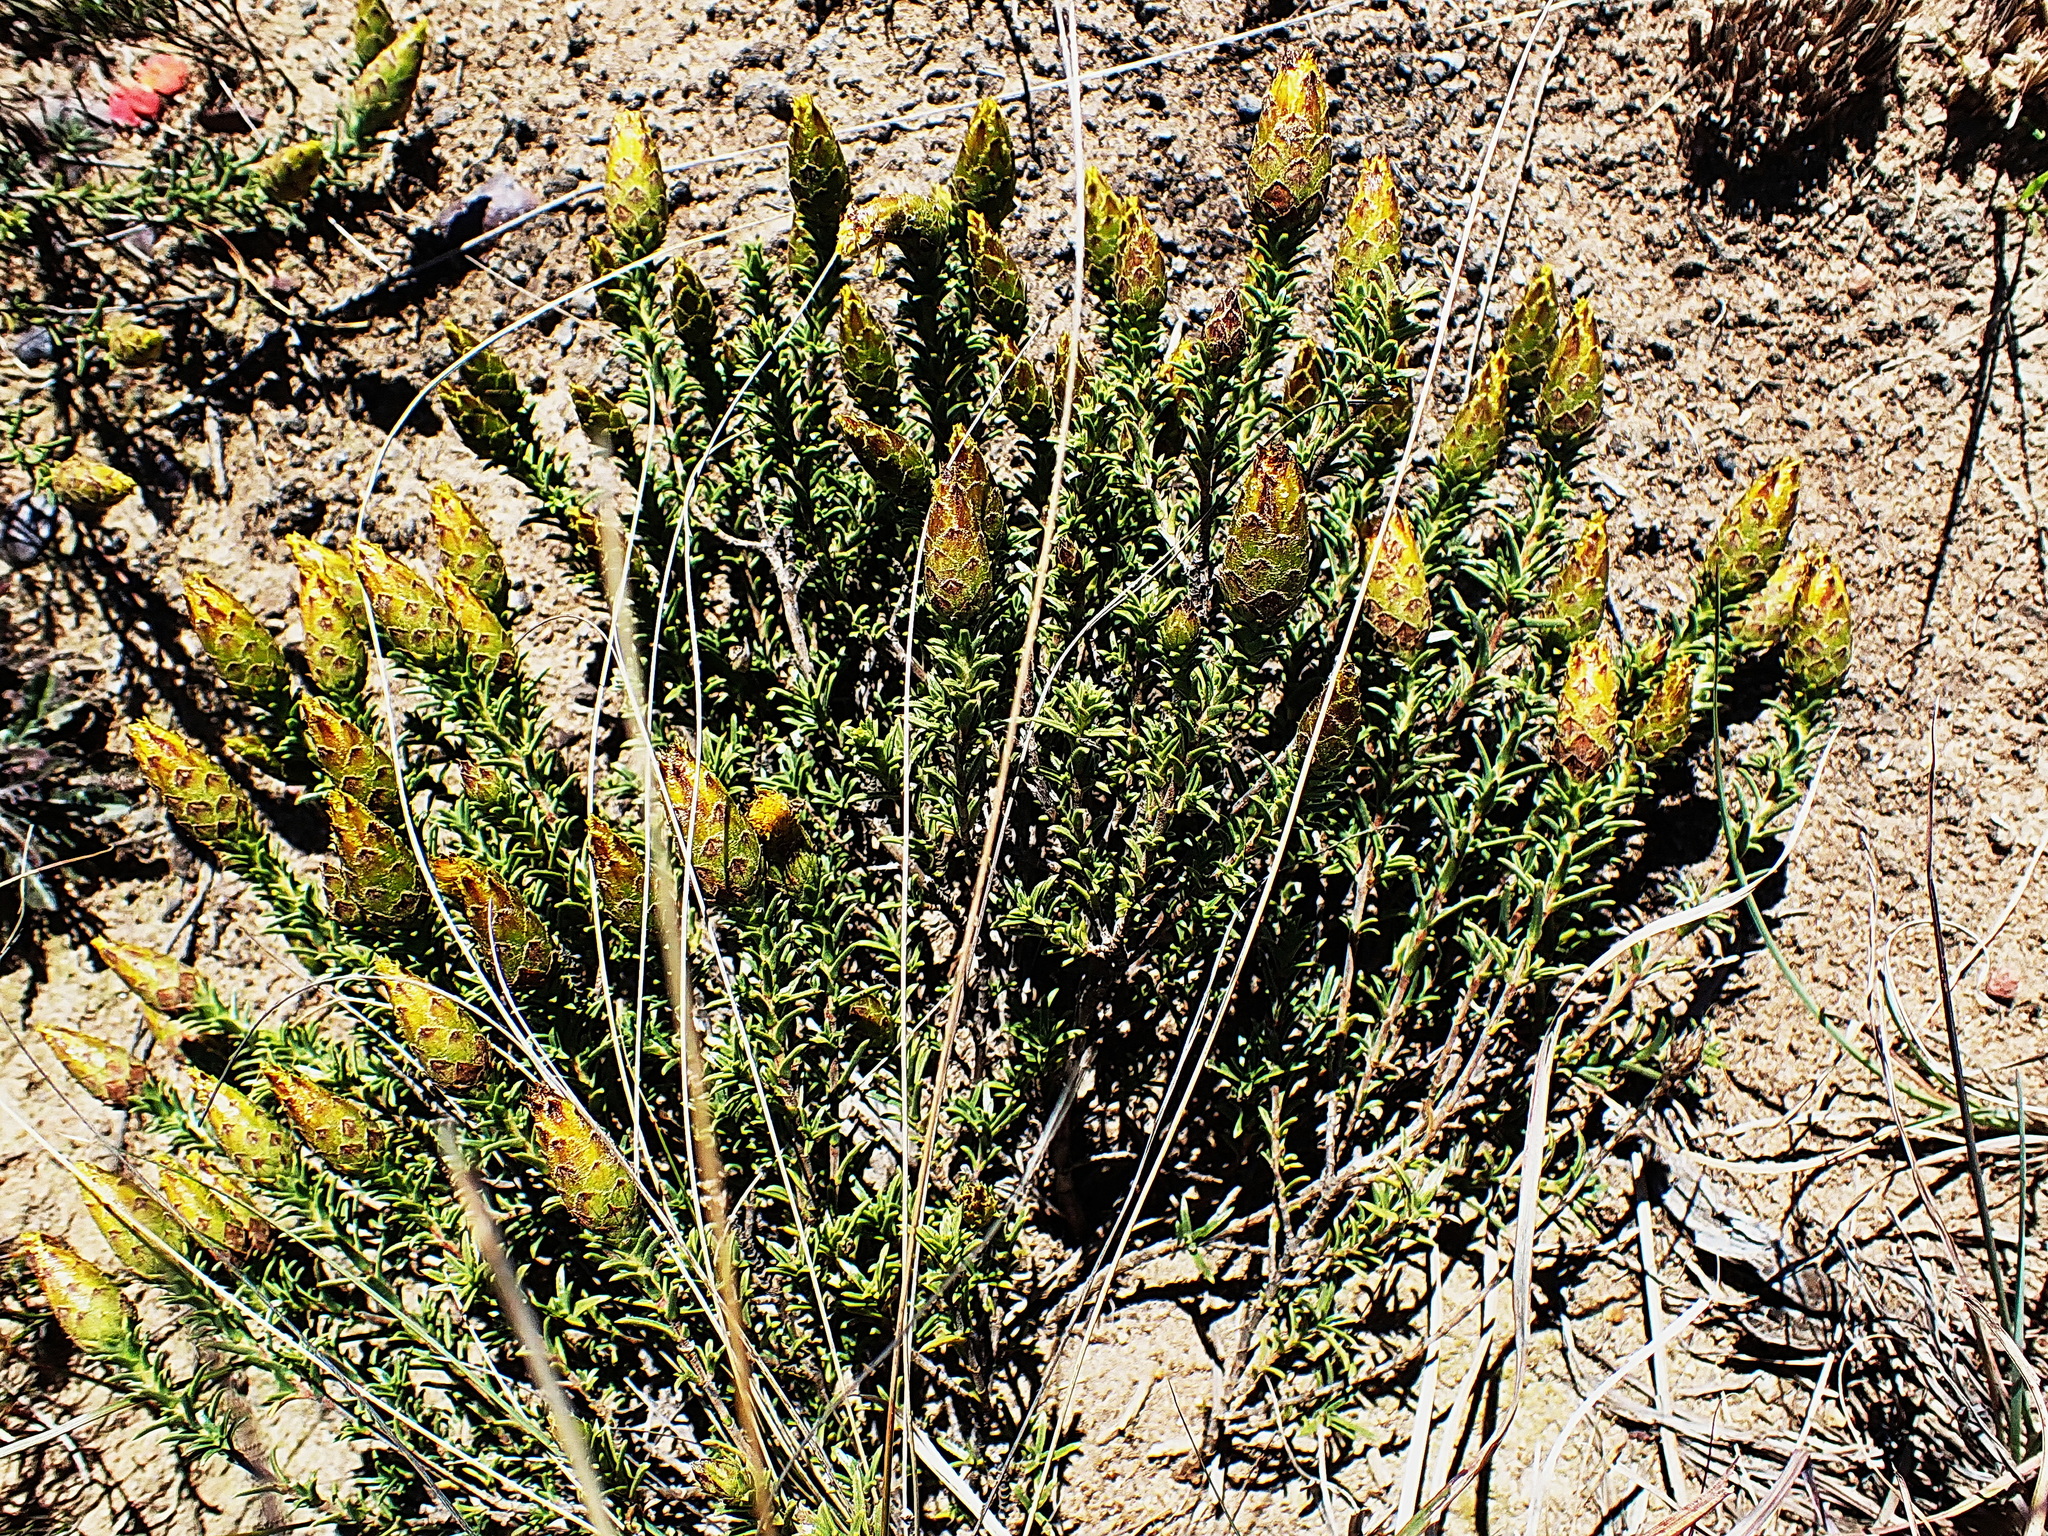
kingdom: Plantae
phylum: Tracheophyta
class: Magnoliopsida
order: Asterales
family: Asteraceae
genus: Pteronia
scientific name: Pteronia elongata
